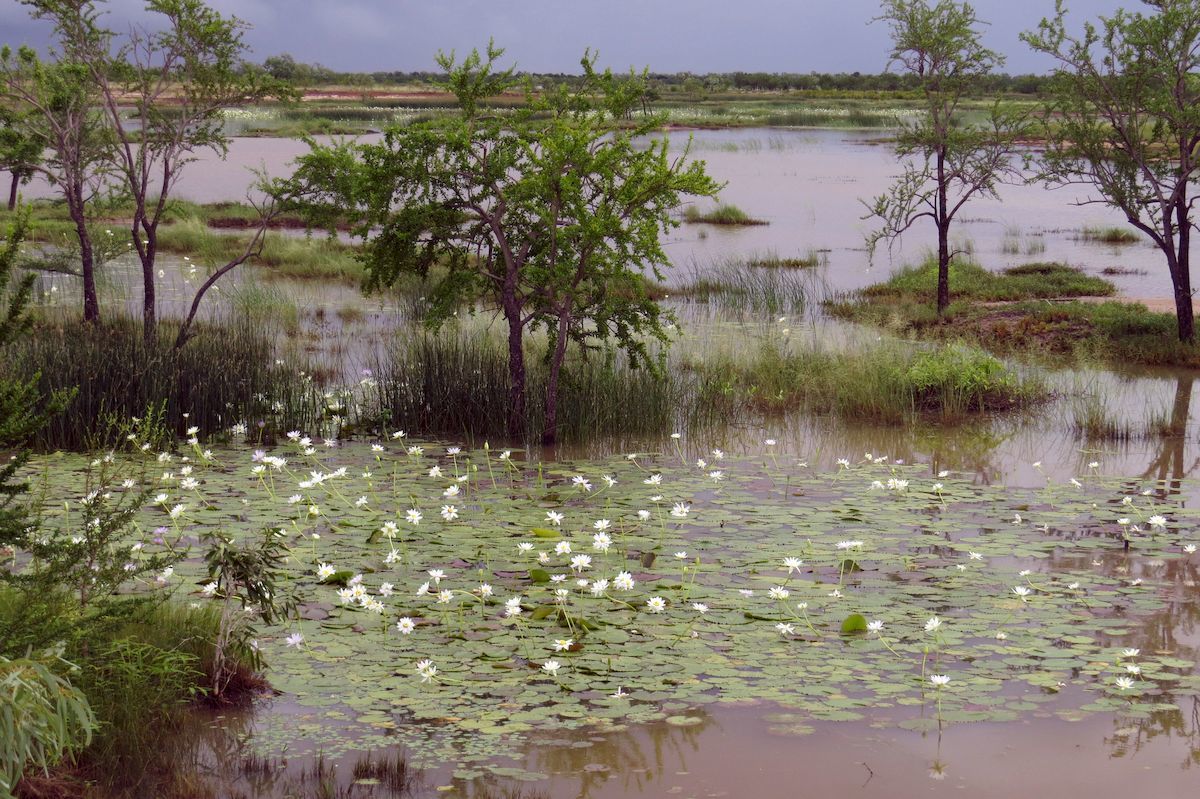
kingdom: Plantae
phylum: Tracheophyta
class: Magnoliopsida
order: Nymphaeales
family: Nymphaeaceae
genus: Nymphaea
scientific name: Nymphaea carpentariae
